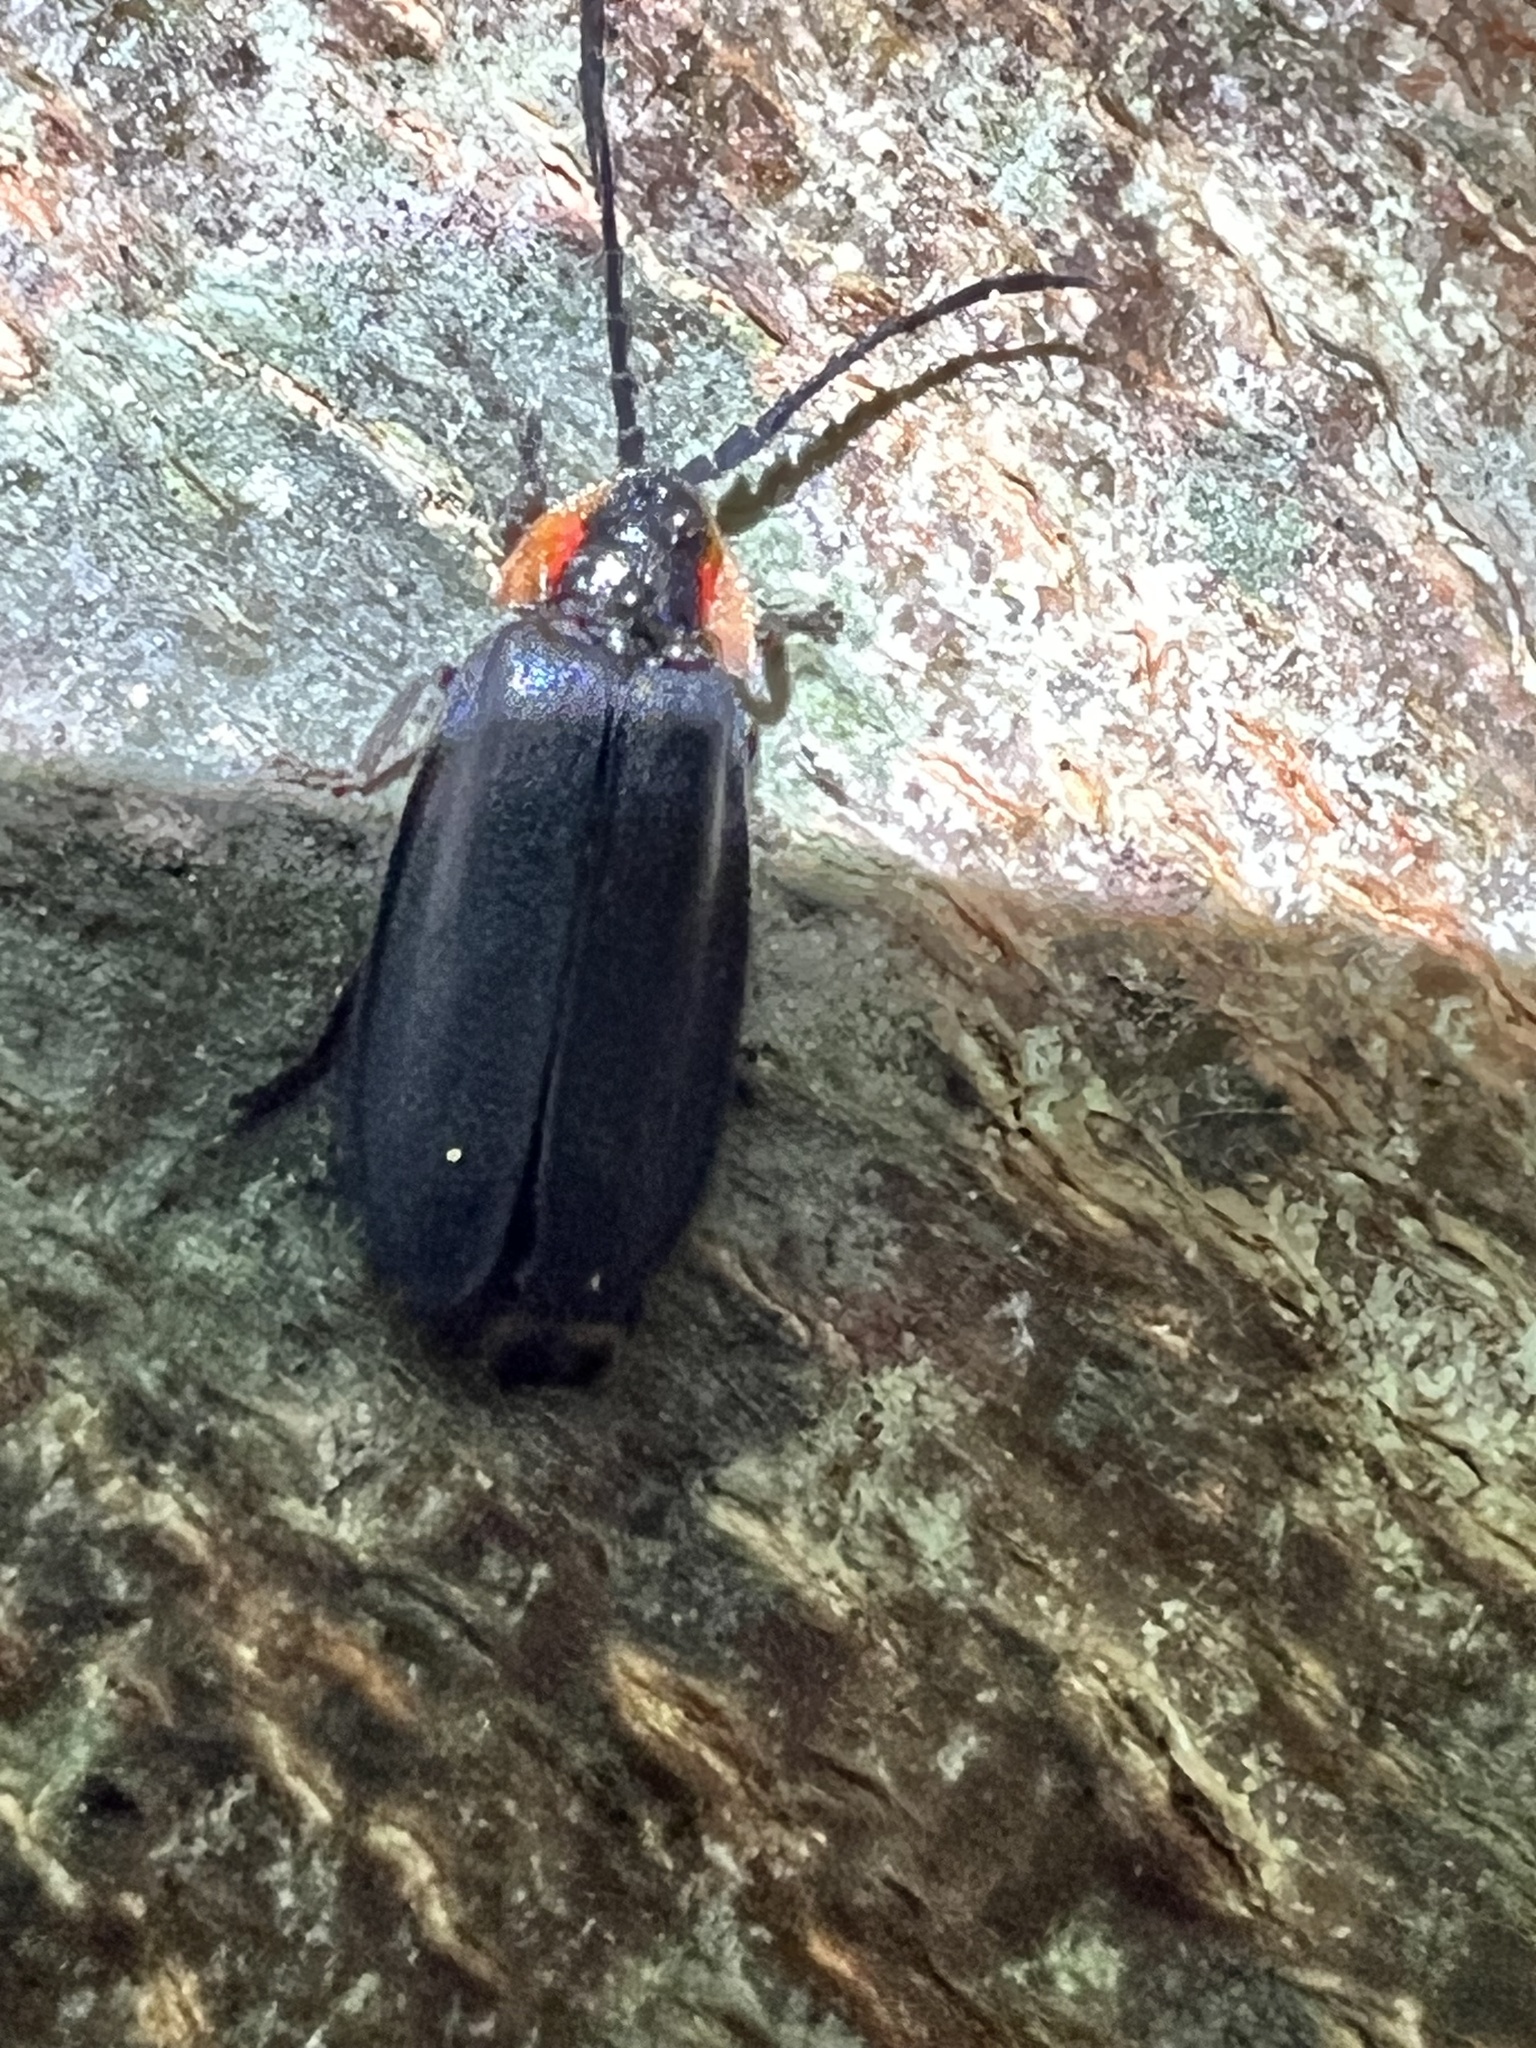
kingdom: Animalia
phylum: Arthropoda
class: Insecta
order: Coleoptera
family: Lampyridae
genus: Lucidota
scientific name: Lucidota atra
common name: Black firefly
